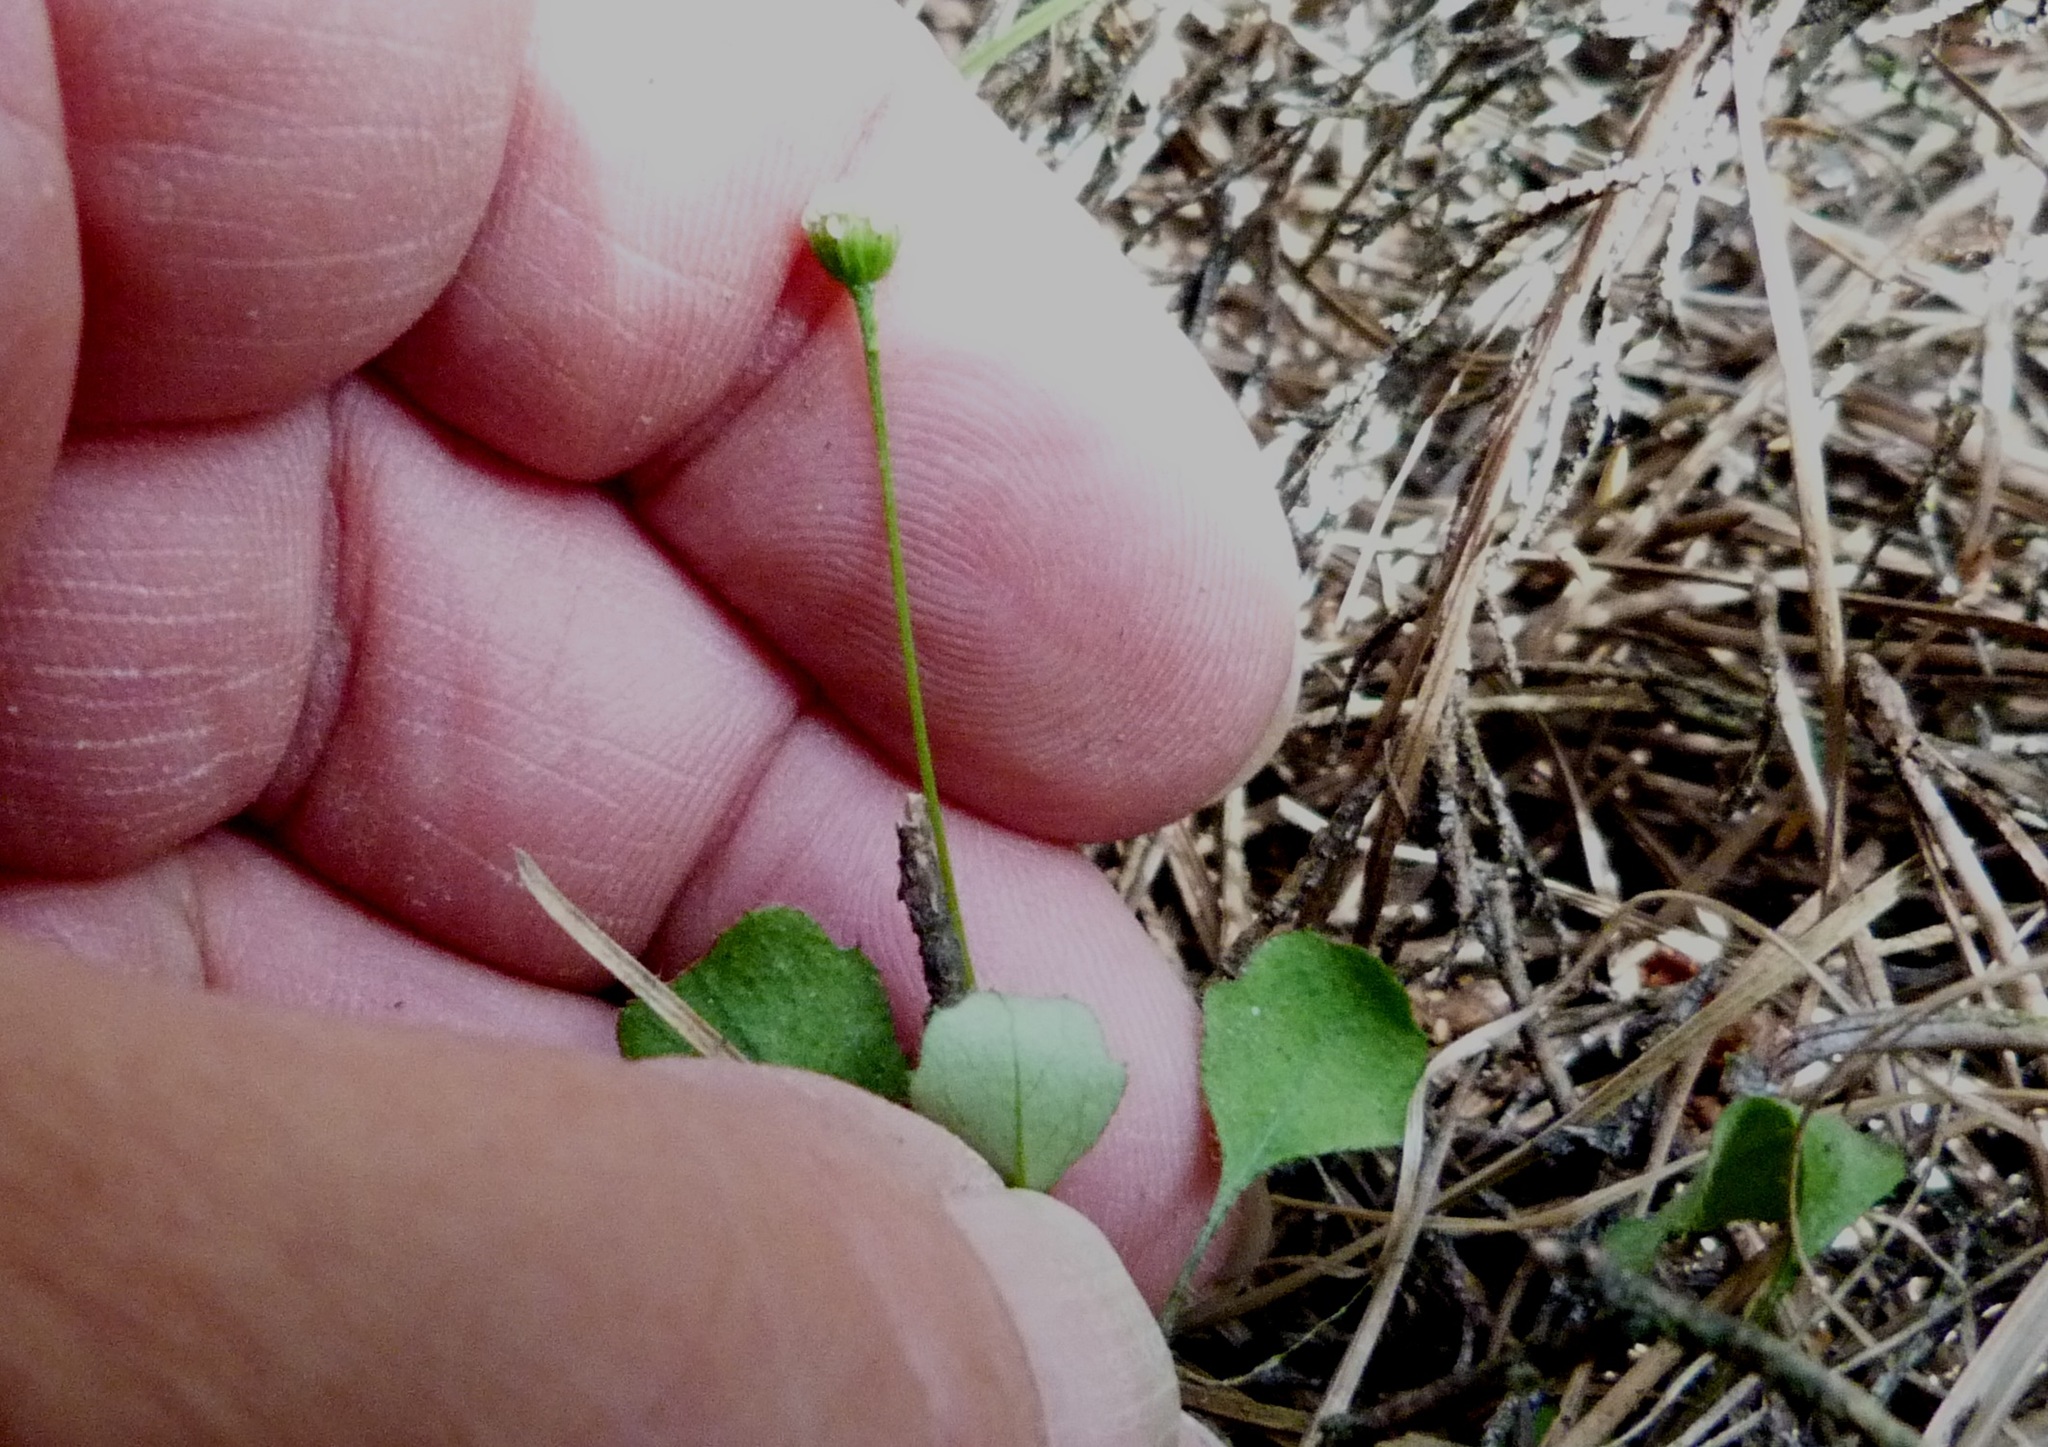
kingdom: Plantae
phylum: Tracheophyta
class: Magnoliopsida
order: Asterales
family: Asteraceae
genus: Lagenophora
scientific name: Lagenophora strangulata
